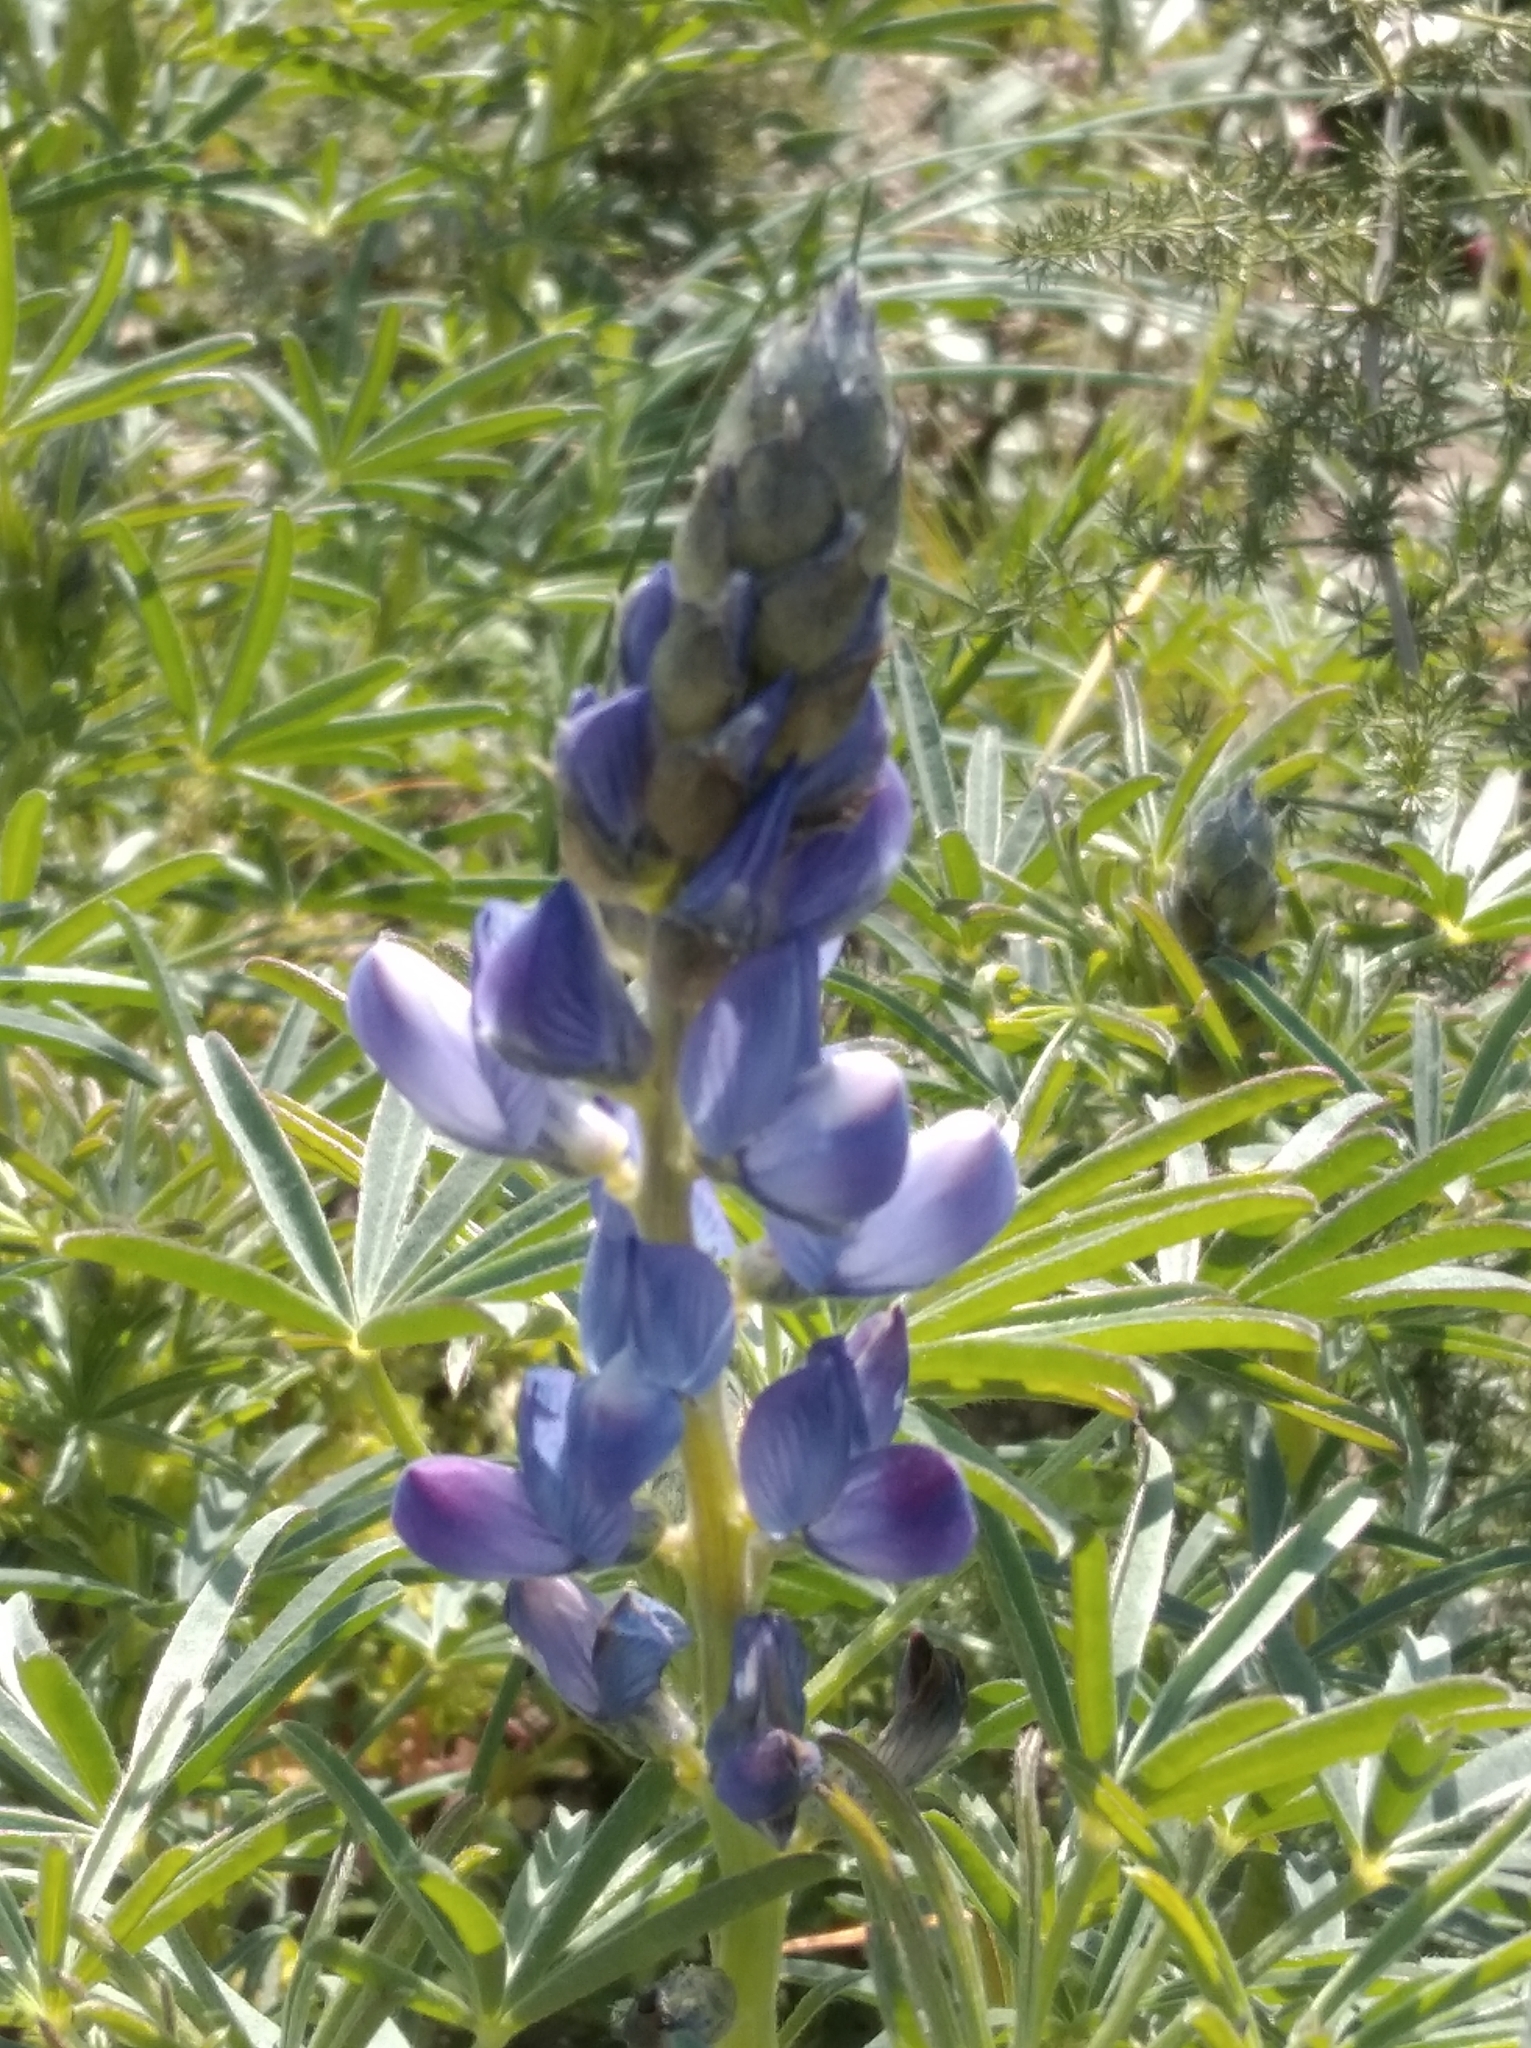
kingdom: Plantae
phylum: Tracheophyta
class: Magnoliopsida
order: Fabales
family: Fabaceae
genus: Lupinus
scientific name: Lupinus angustifolius
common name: Narrow-leaved lupin
